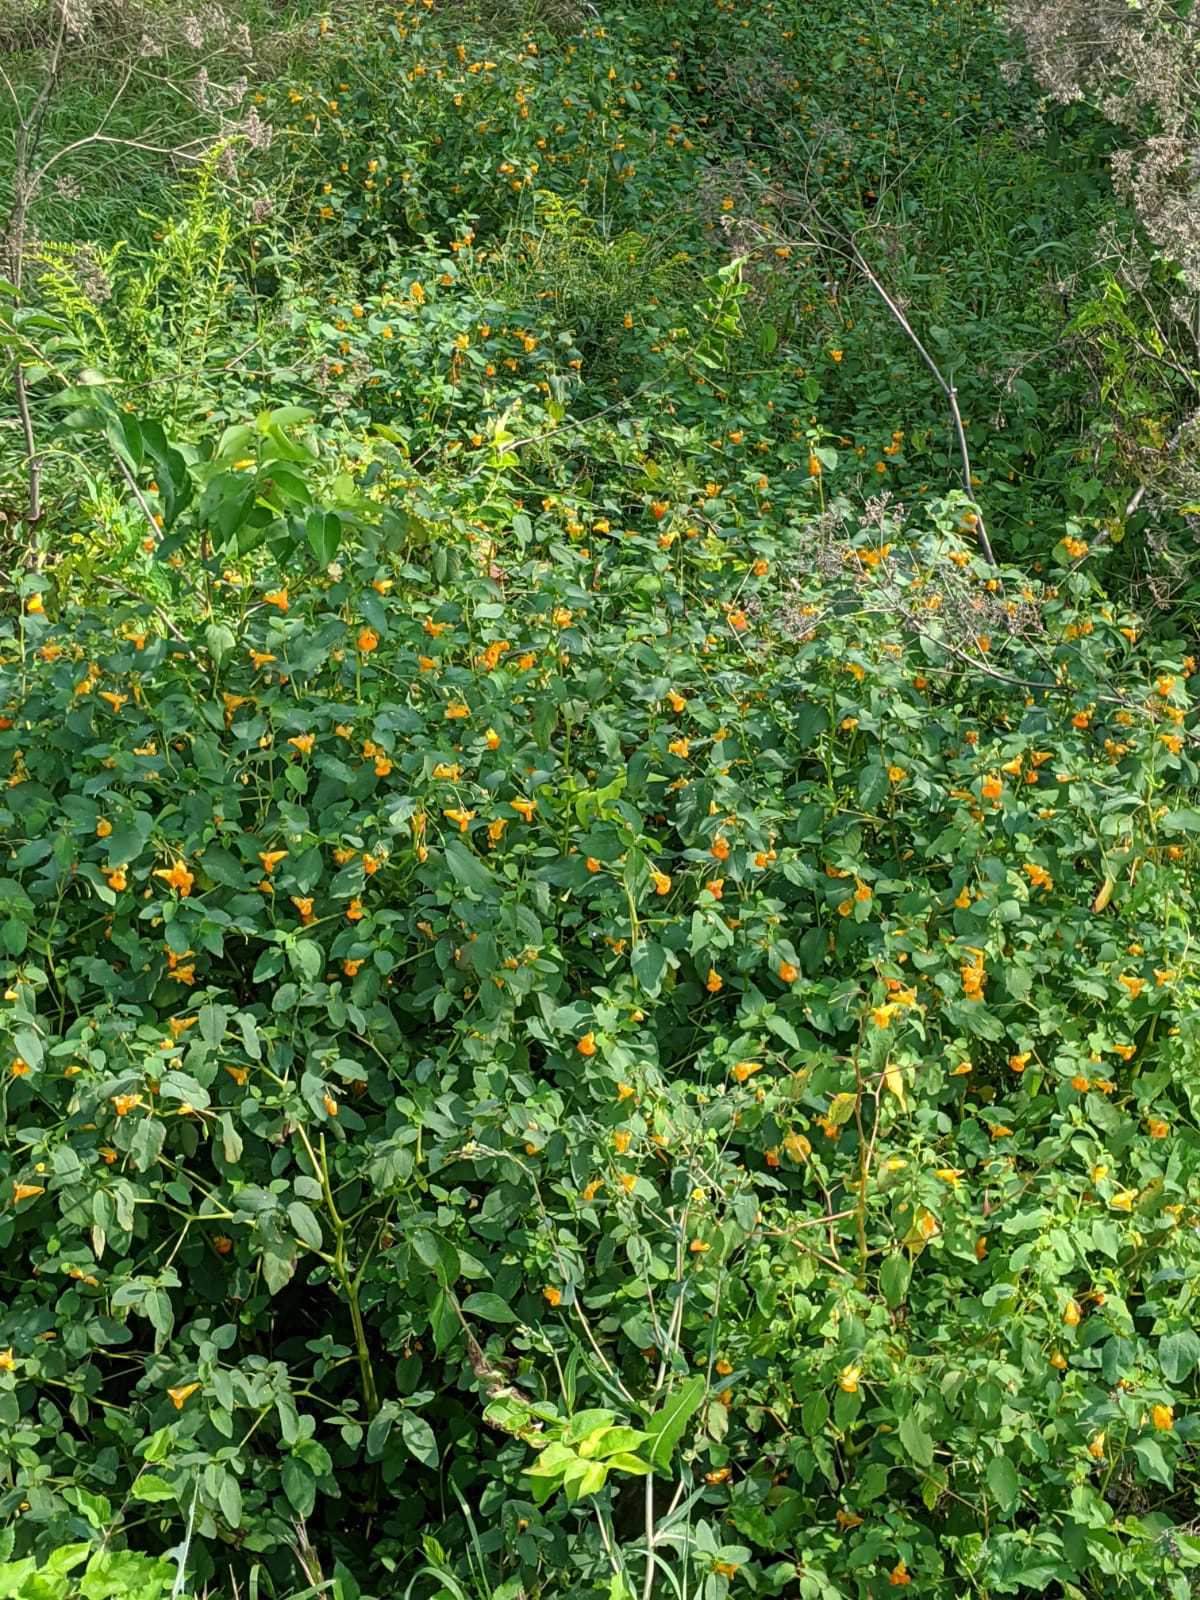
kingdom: Plantae
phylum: Tracheophyta
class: Magnoliopsida
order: Ericales
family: Balsaminaceae
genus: Impatiens
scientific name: Impatiens capensis
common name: Orange balsam
